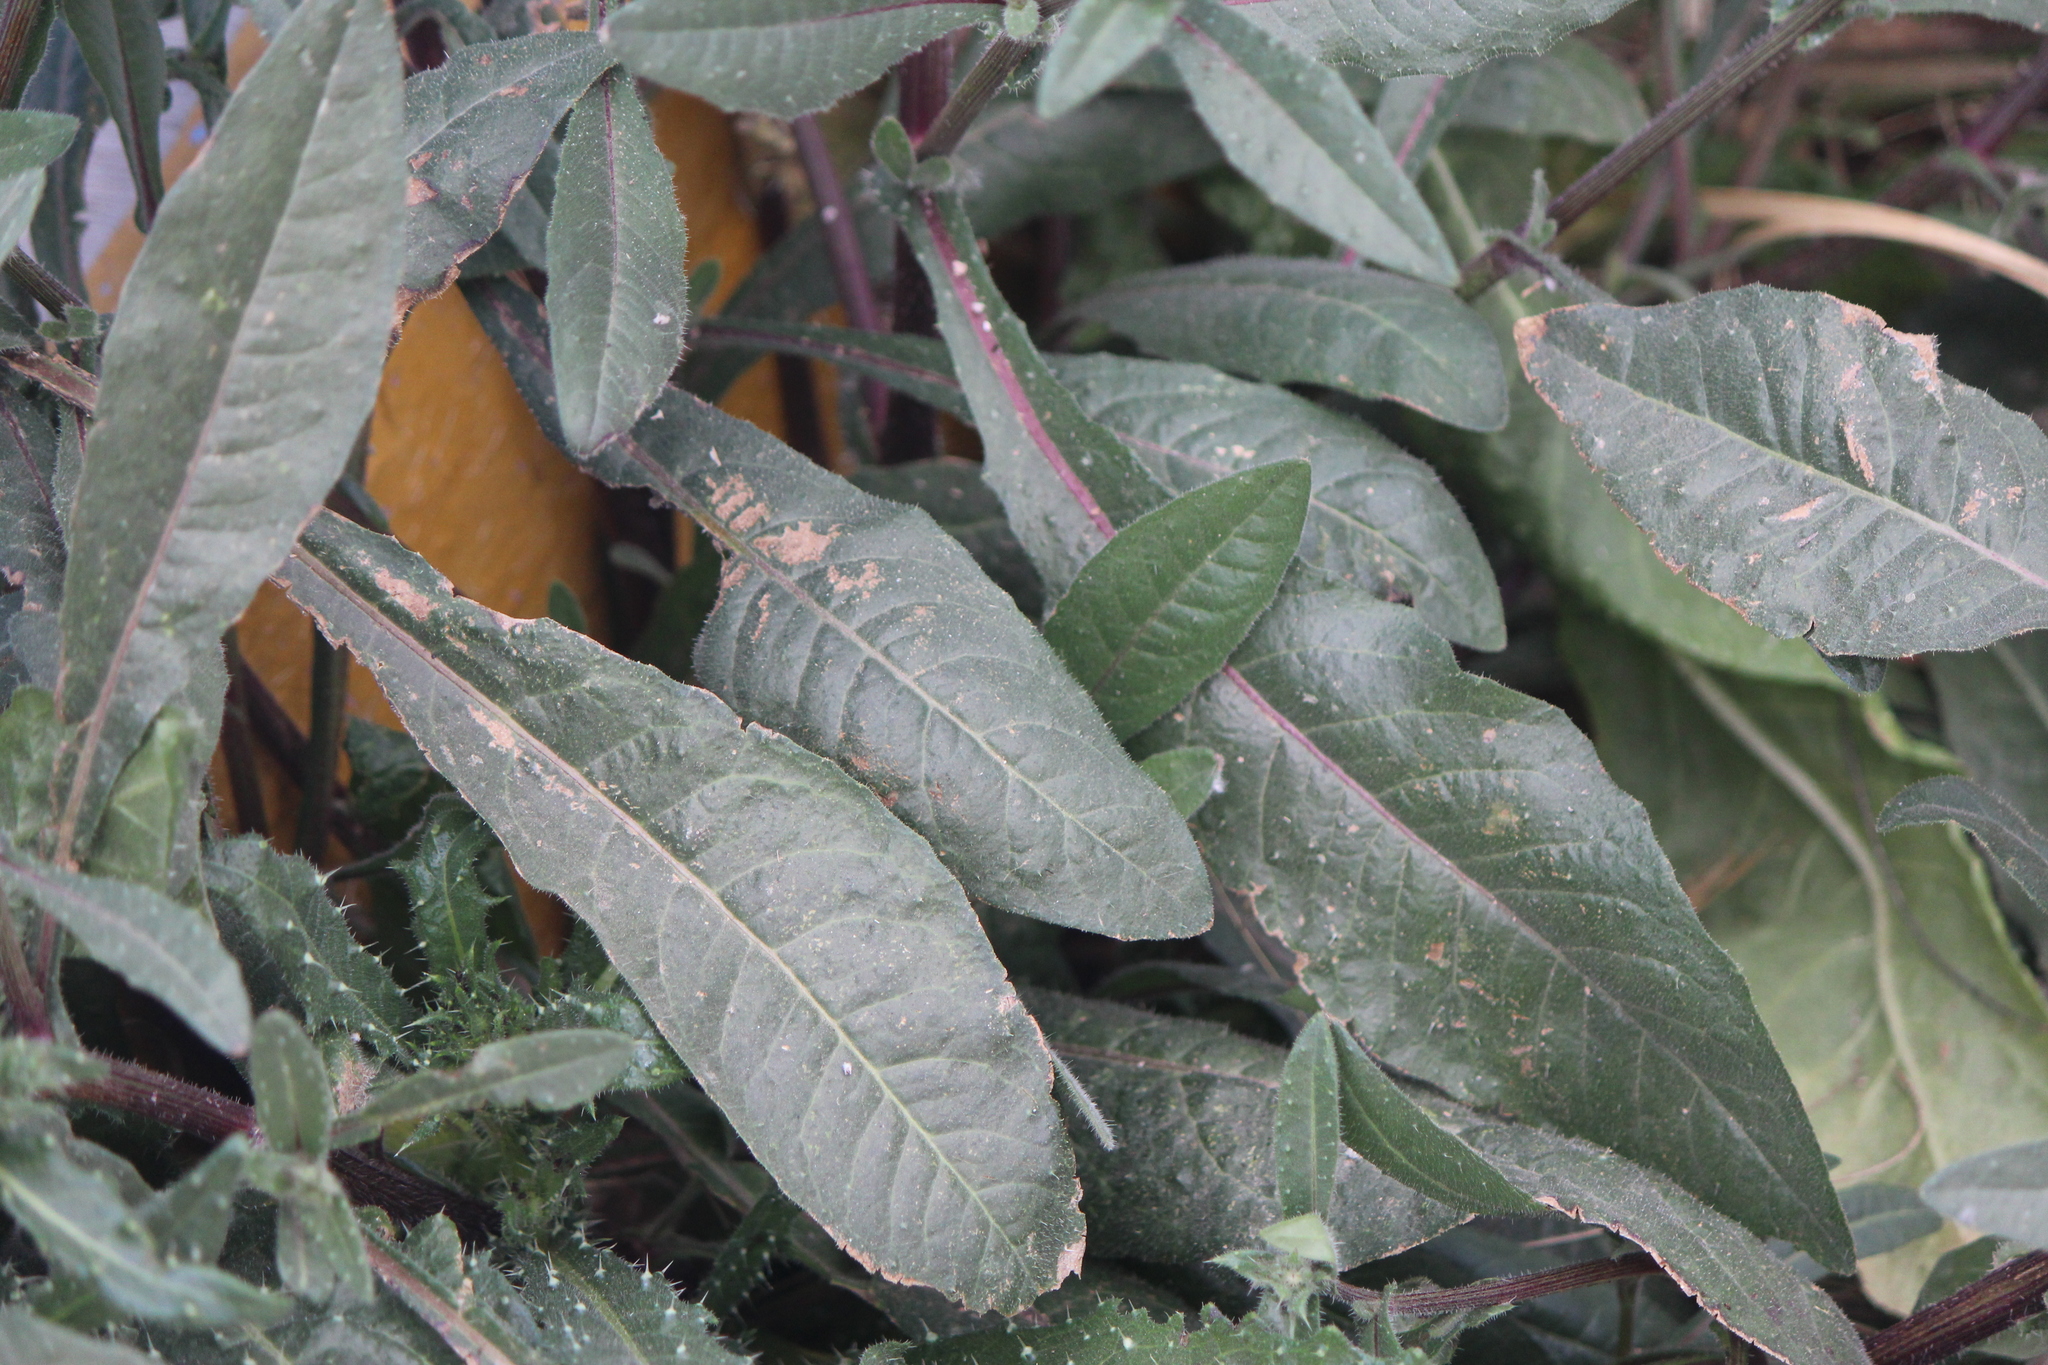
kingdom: Plantae
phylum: Tracheophyta
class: Magnoliopsida
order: Asterales
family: Asteraceae
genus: Taraxacum
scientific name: Taraxacum officinale
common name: Common dandelion
